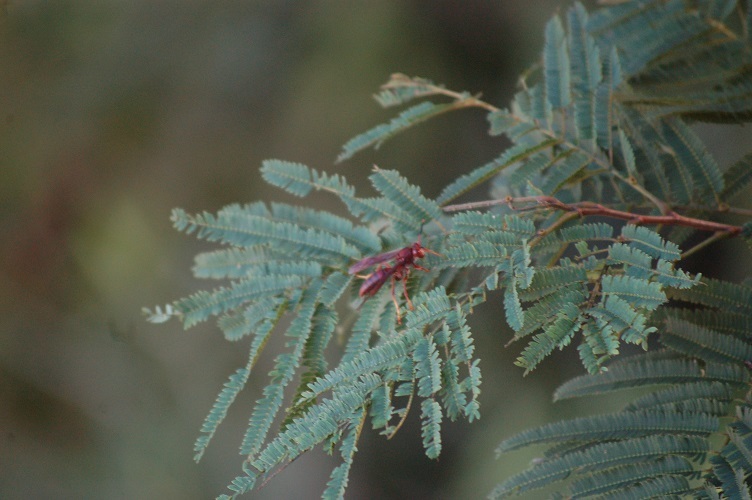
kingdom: Animalia
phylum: Arthropoda
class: Insecta
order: Hymenoptera
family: Eumenidae
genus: Polistes
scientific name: Polistes canadensis
